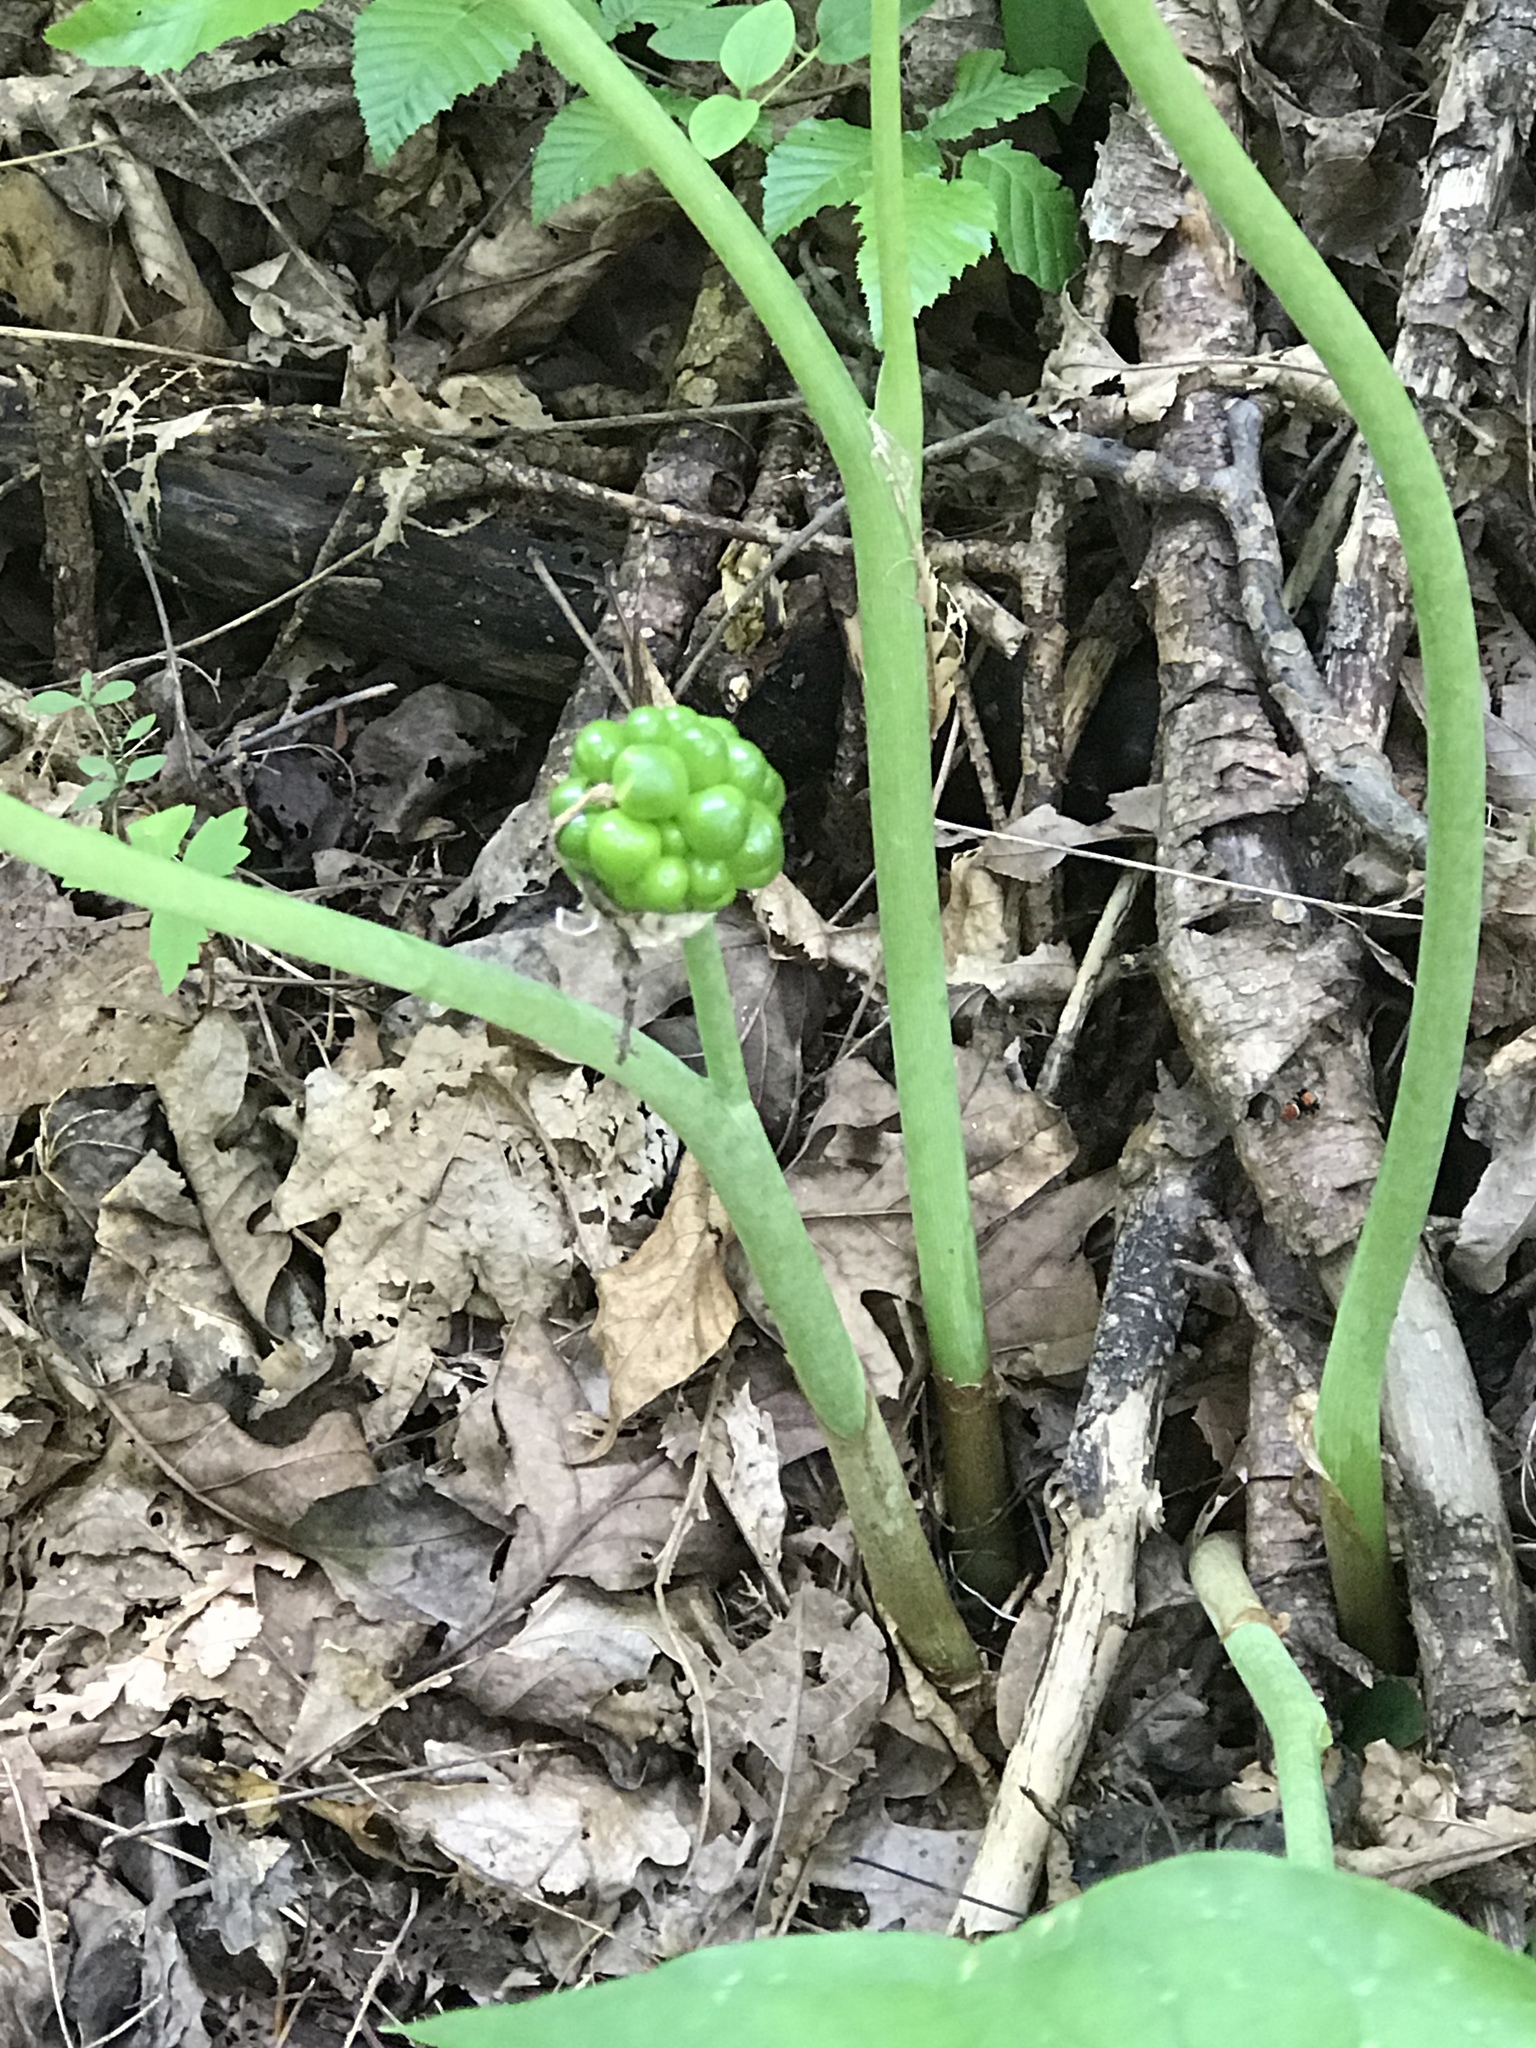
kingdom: Plantae
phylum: Tracheophyta
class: Liliopsida
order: Alismatales
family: Araceae
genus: Arisaema
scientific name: Arisaema triphyllum
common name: Jack-in-the-pulpit
